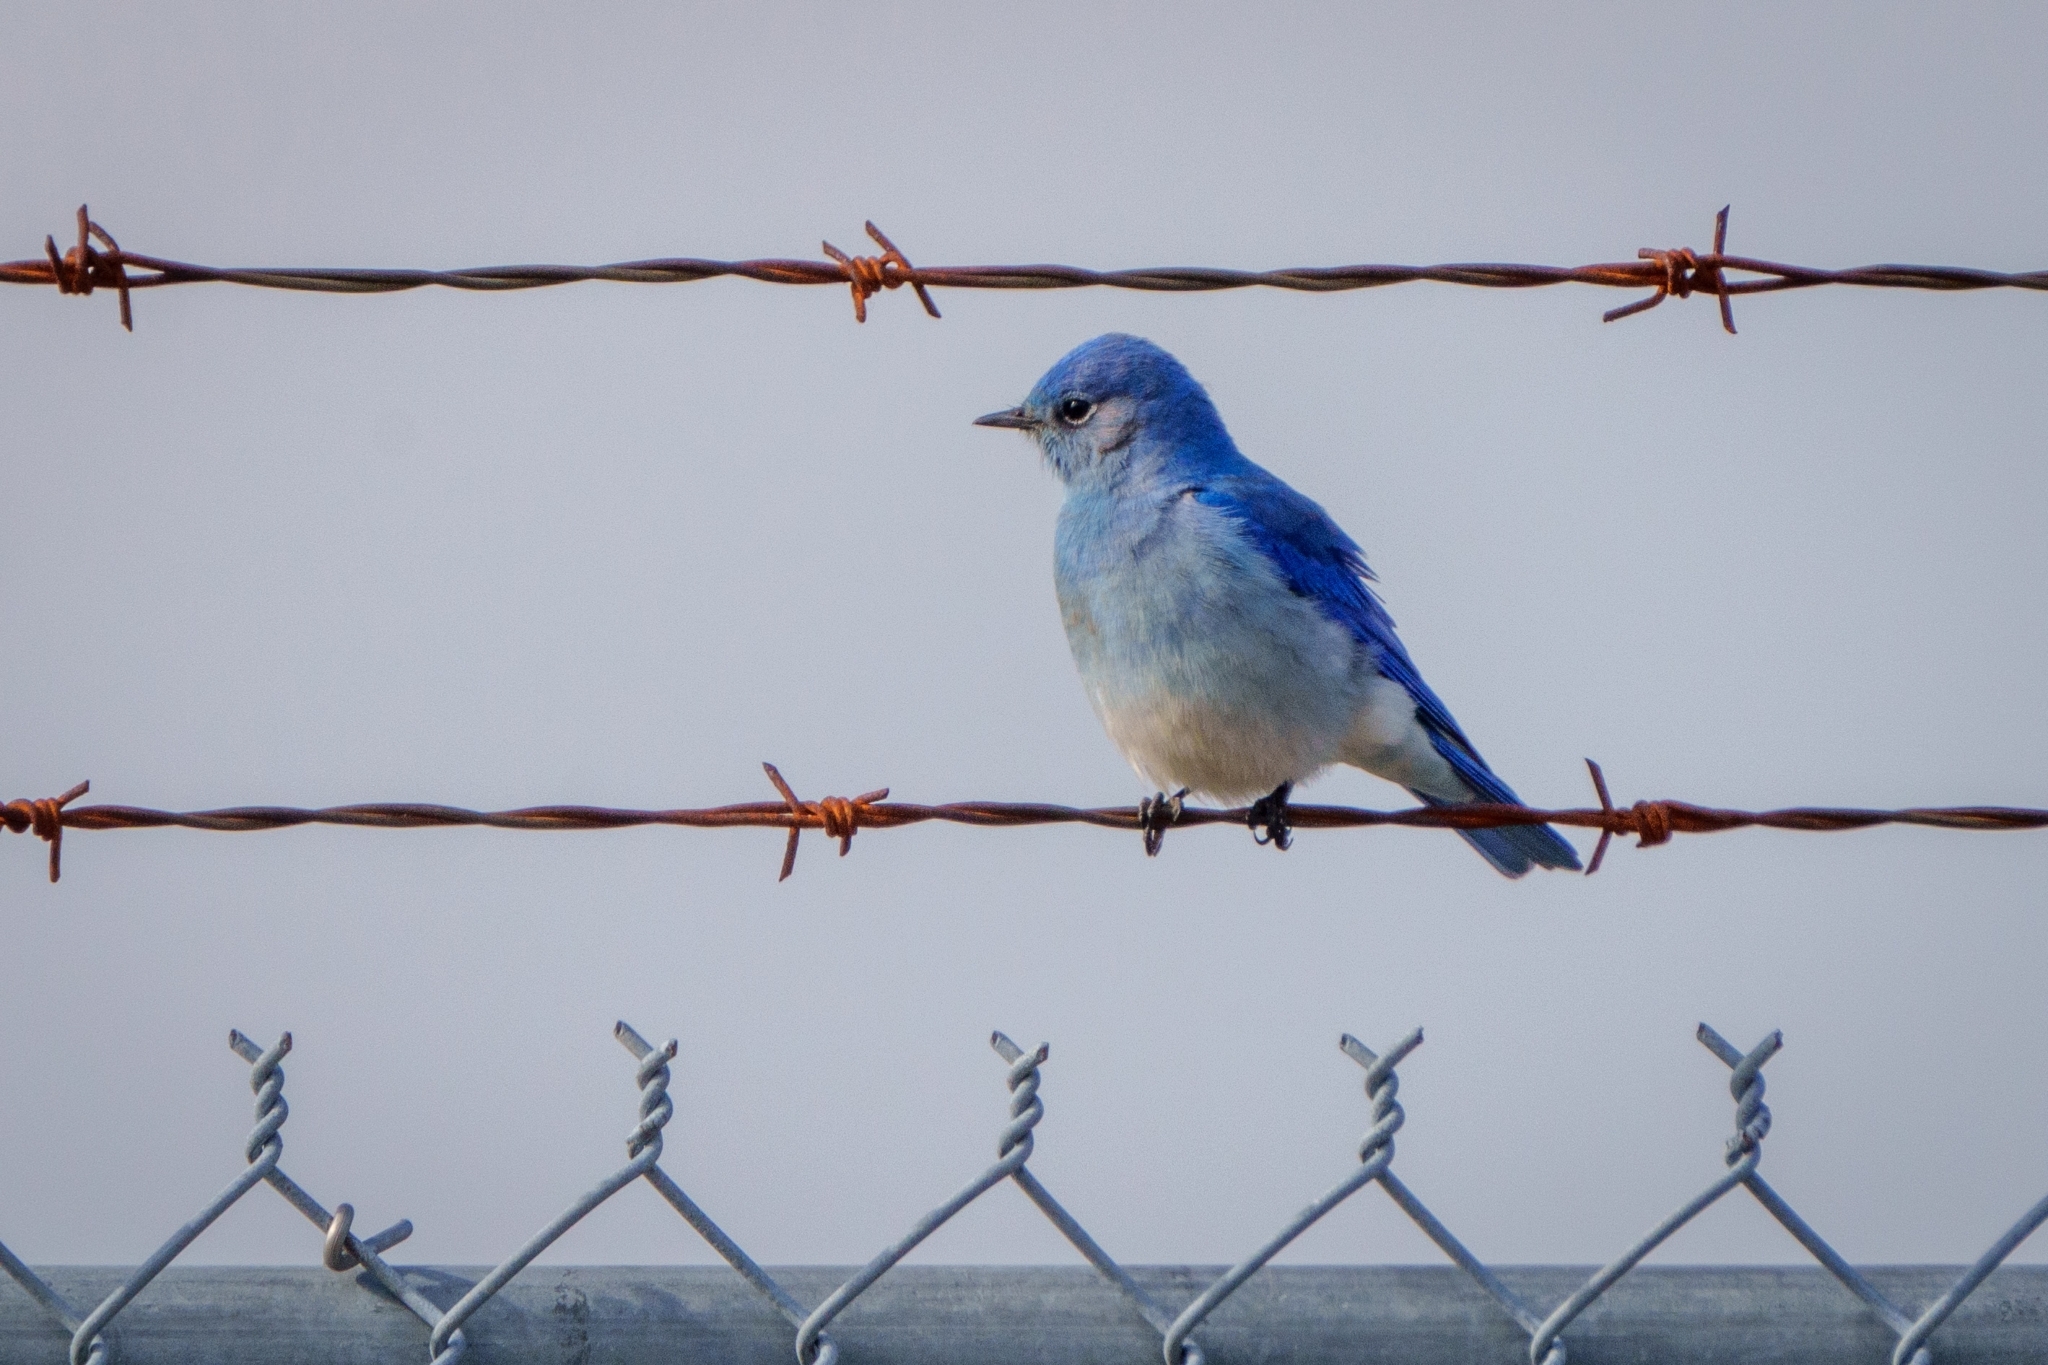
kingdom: Animalia
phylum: Chordata
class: Aves
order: Passeriformes
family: Turdidae
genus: Sialia
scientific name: Sialia currucoides
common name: Mountain bluebird
